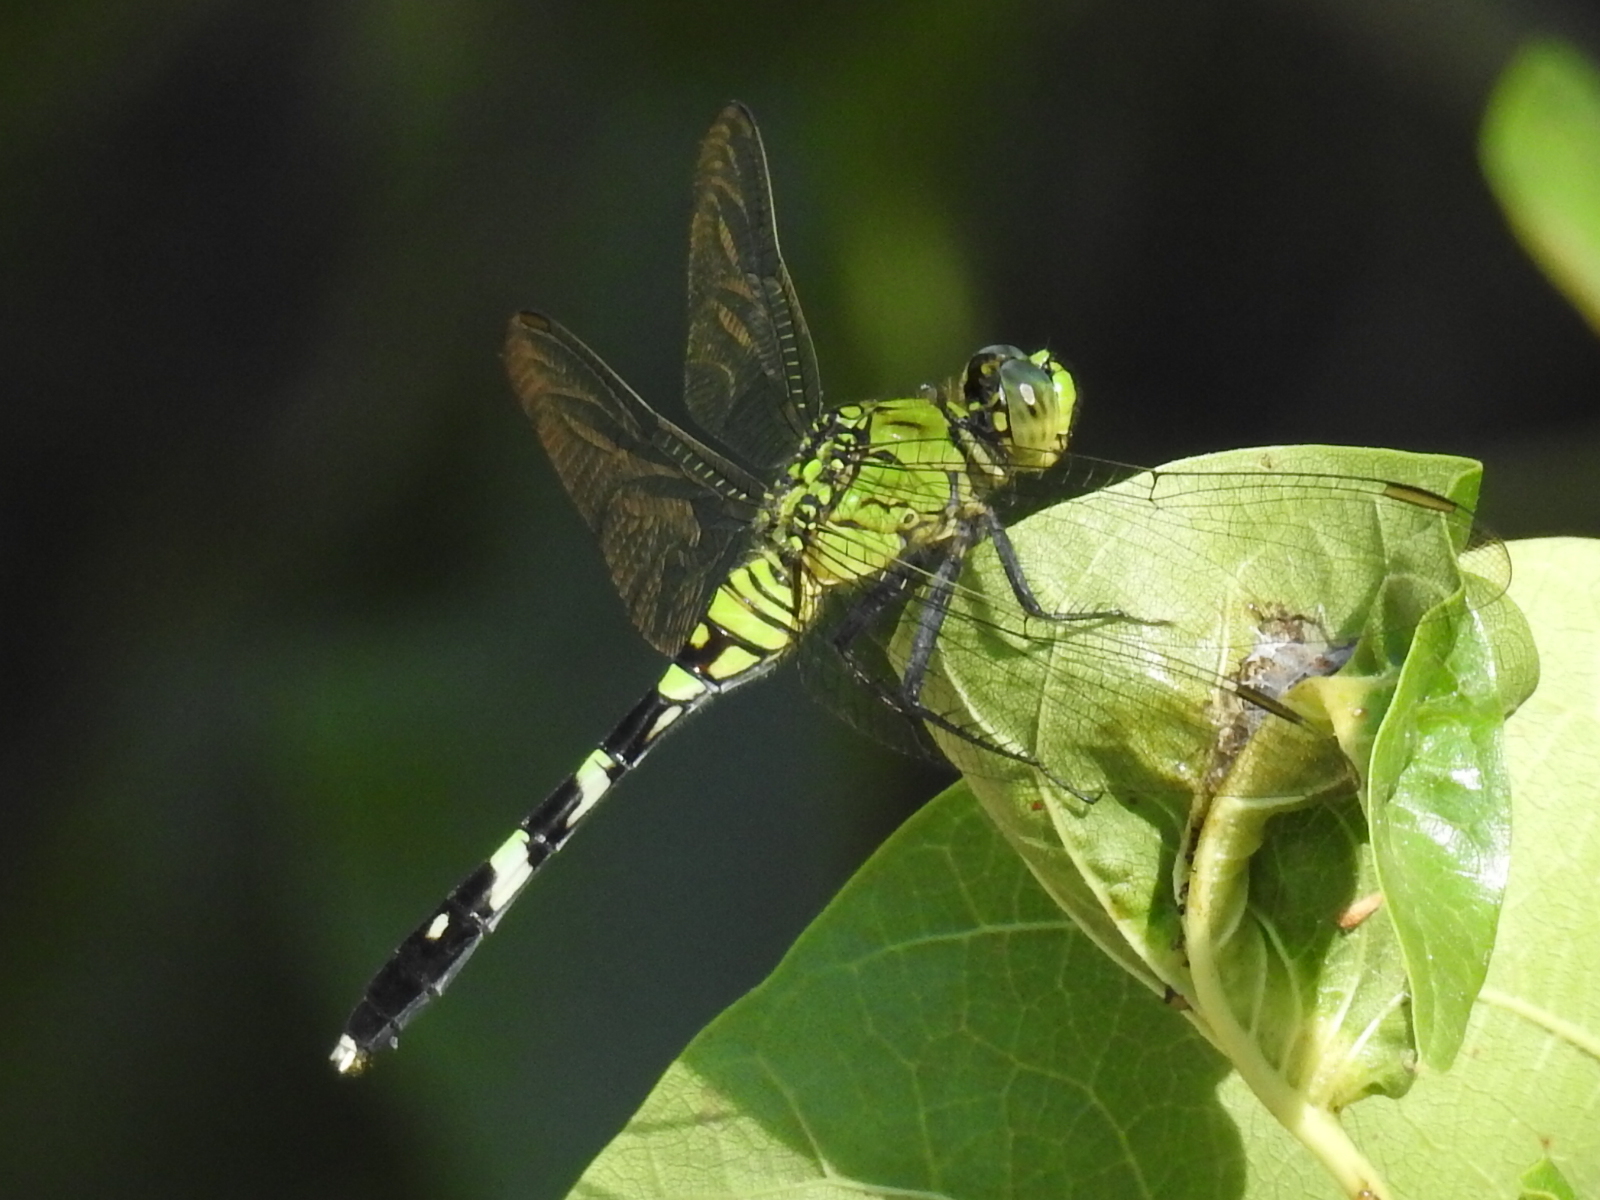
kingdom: Animalia
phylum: Arthropoda
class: Insecta
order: Odonata
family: Libellulidae
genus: Erythemis
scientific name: Erythemis simplicicollis
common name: Eastern pondhawk
